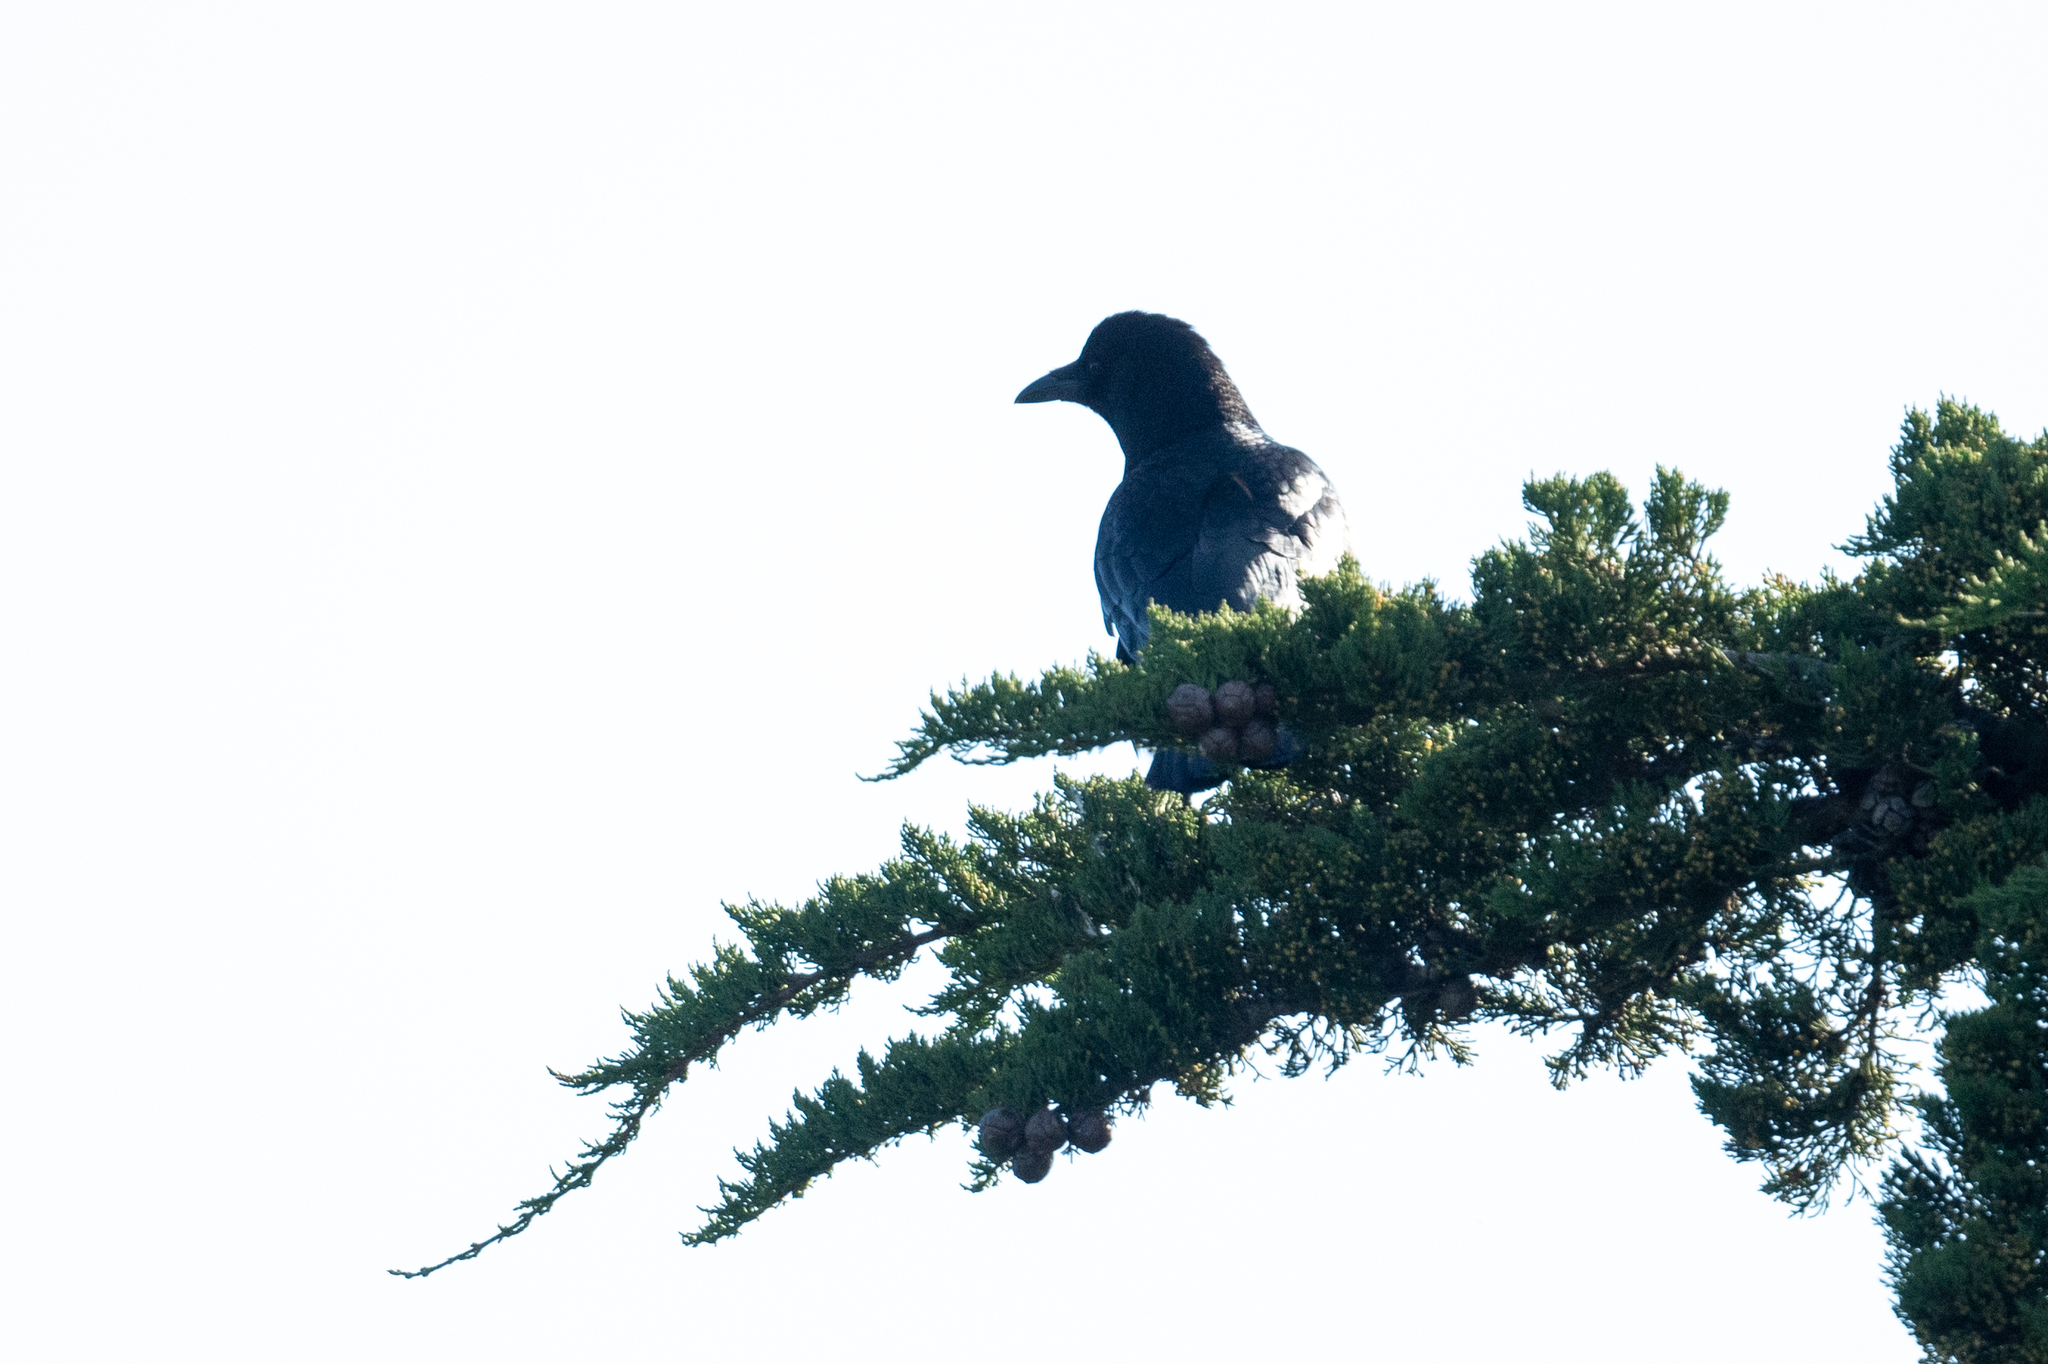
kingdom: Animalia
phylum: Chordata
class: Aves
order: Passeriformes
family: Corvidae
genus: Corvus
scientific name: Corvus brachyrhynchos
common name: American crow
